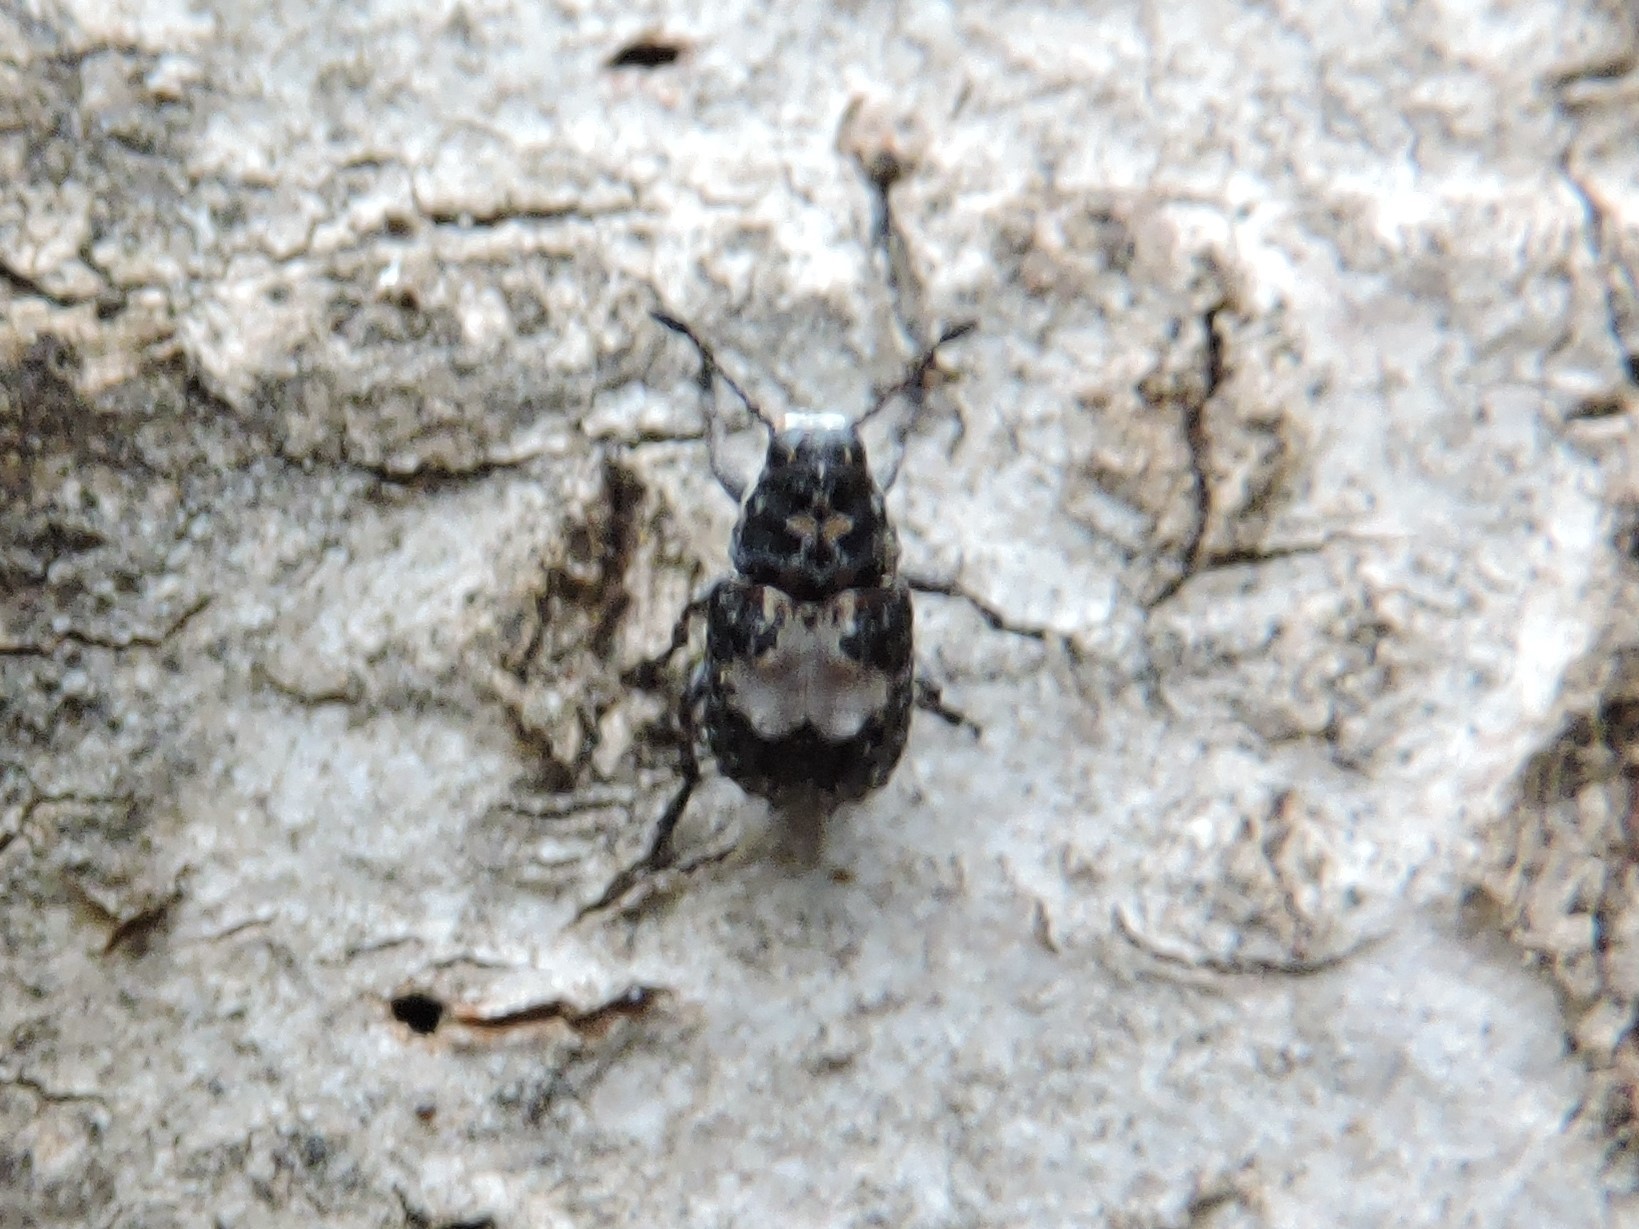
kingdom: Animalia
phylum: Arthropoda
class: Insecta
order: Coleoptera
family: Anthribidae
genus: Gonotropis
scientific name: Gonotropis dorsalis
